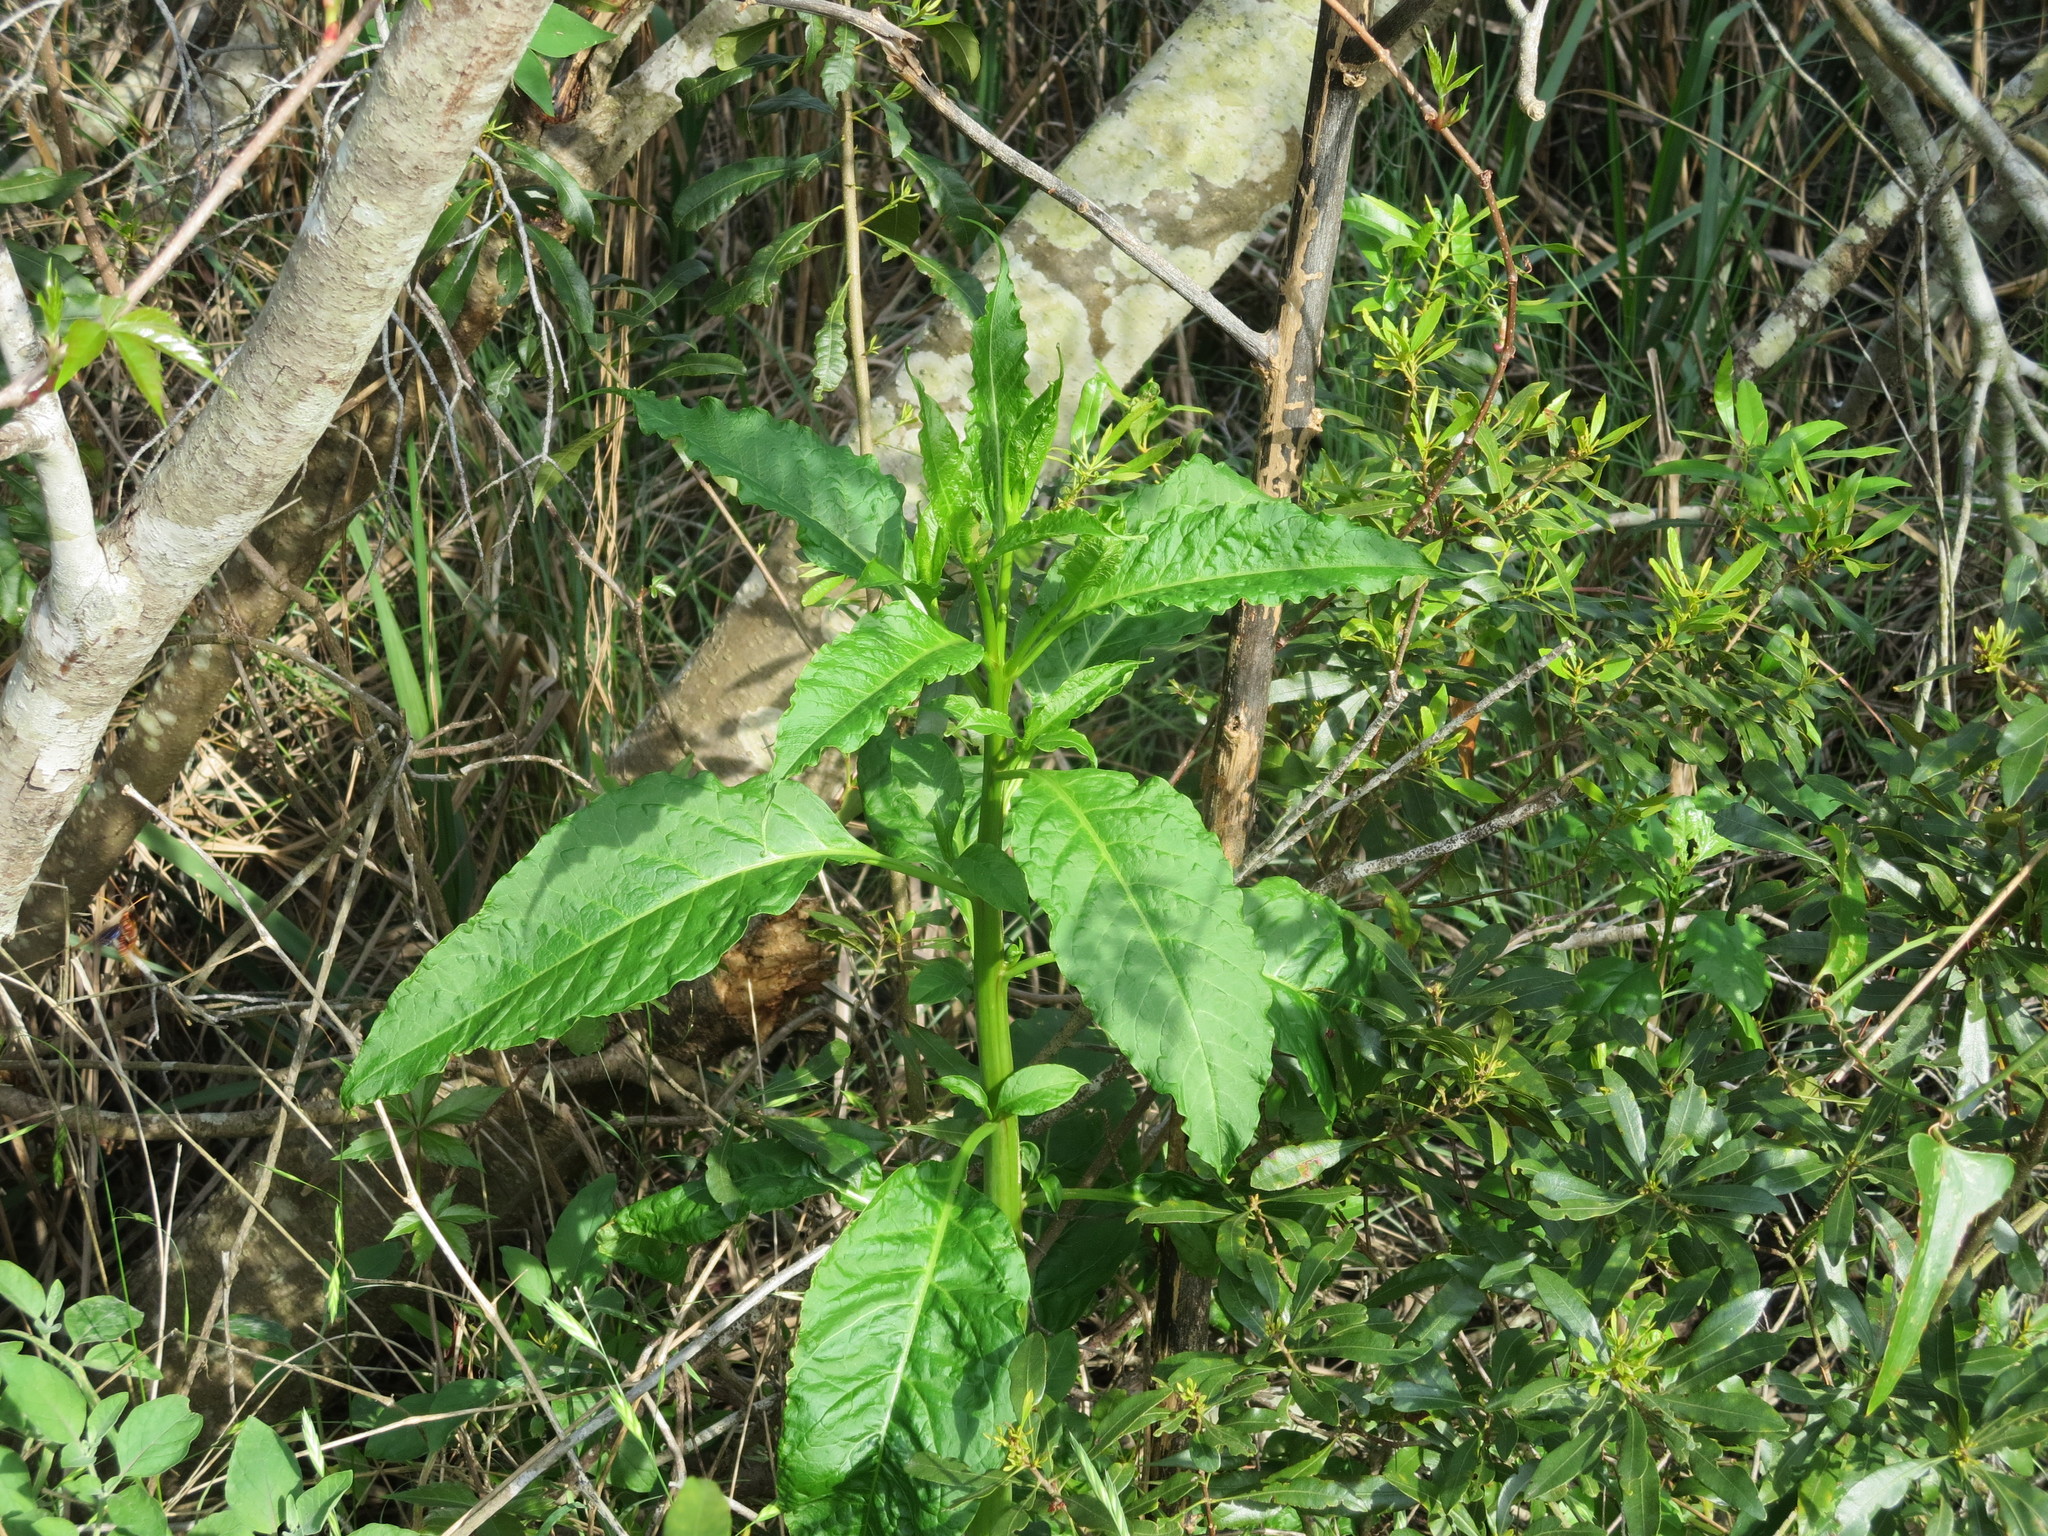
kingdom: Plantae
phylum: Tracheophyta
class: Magnoliopsida
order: Caryophyllales
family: Phytolaccaceae
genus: Phytolacca
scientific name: Phytolacca americana
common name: American pokeweed
